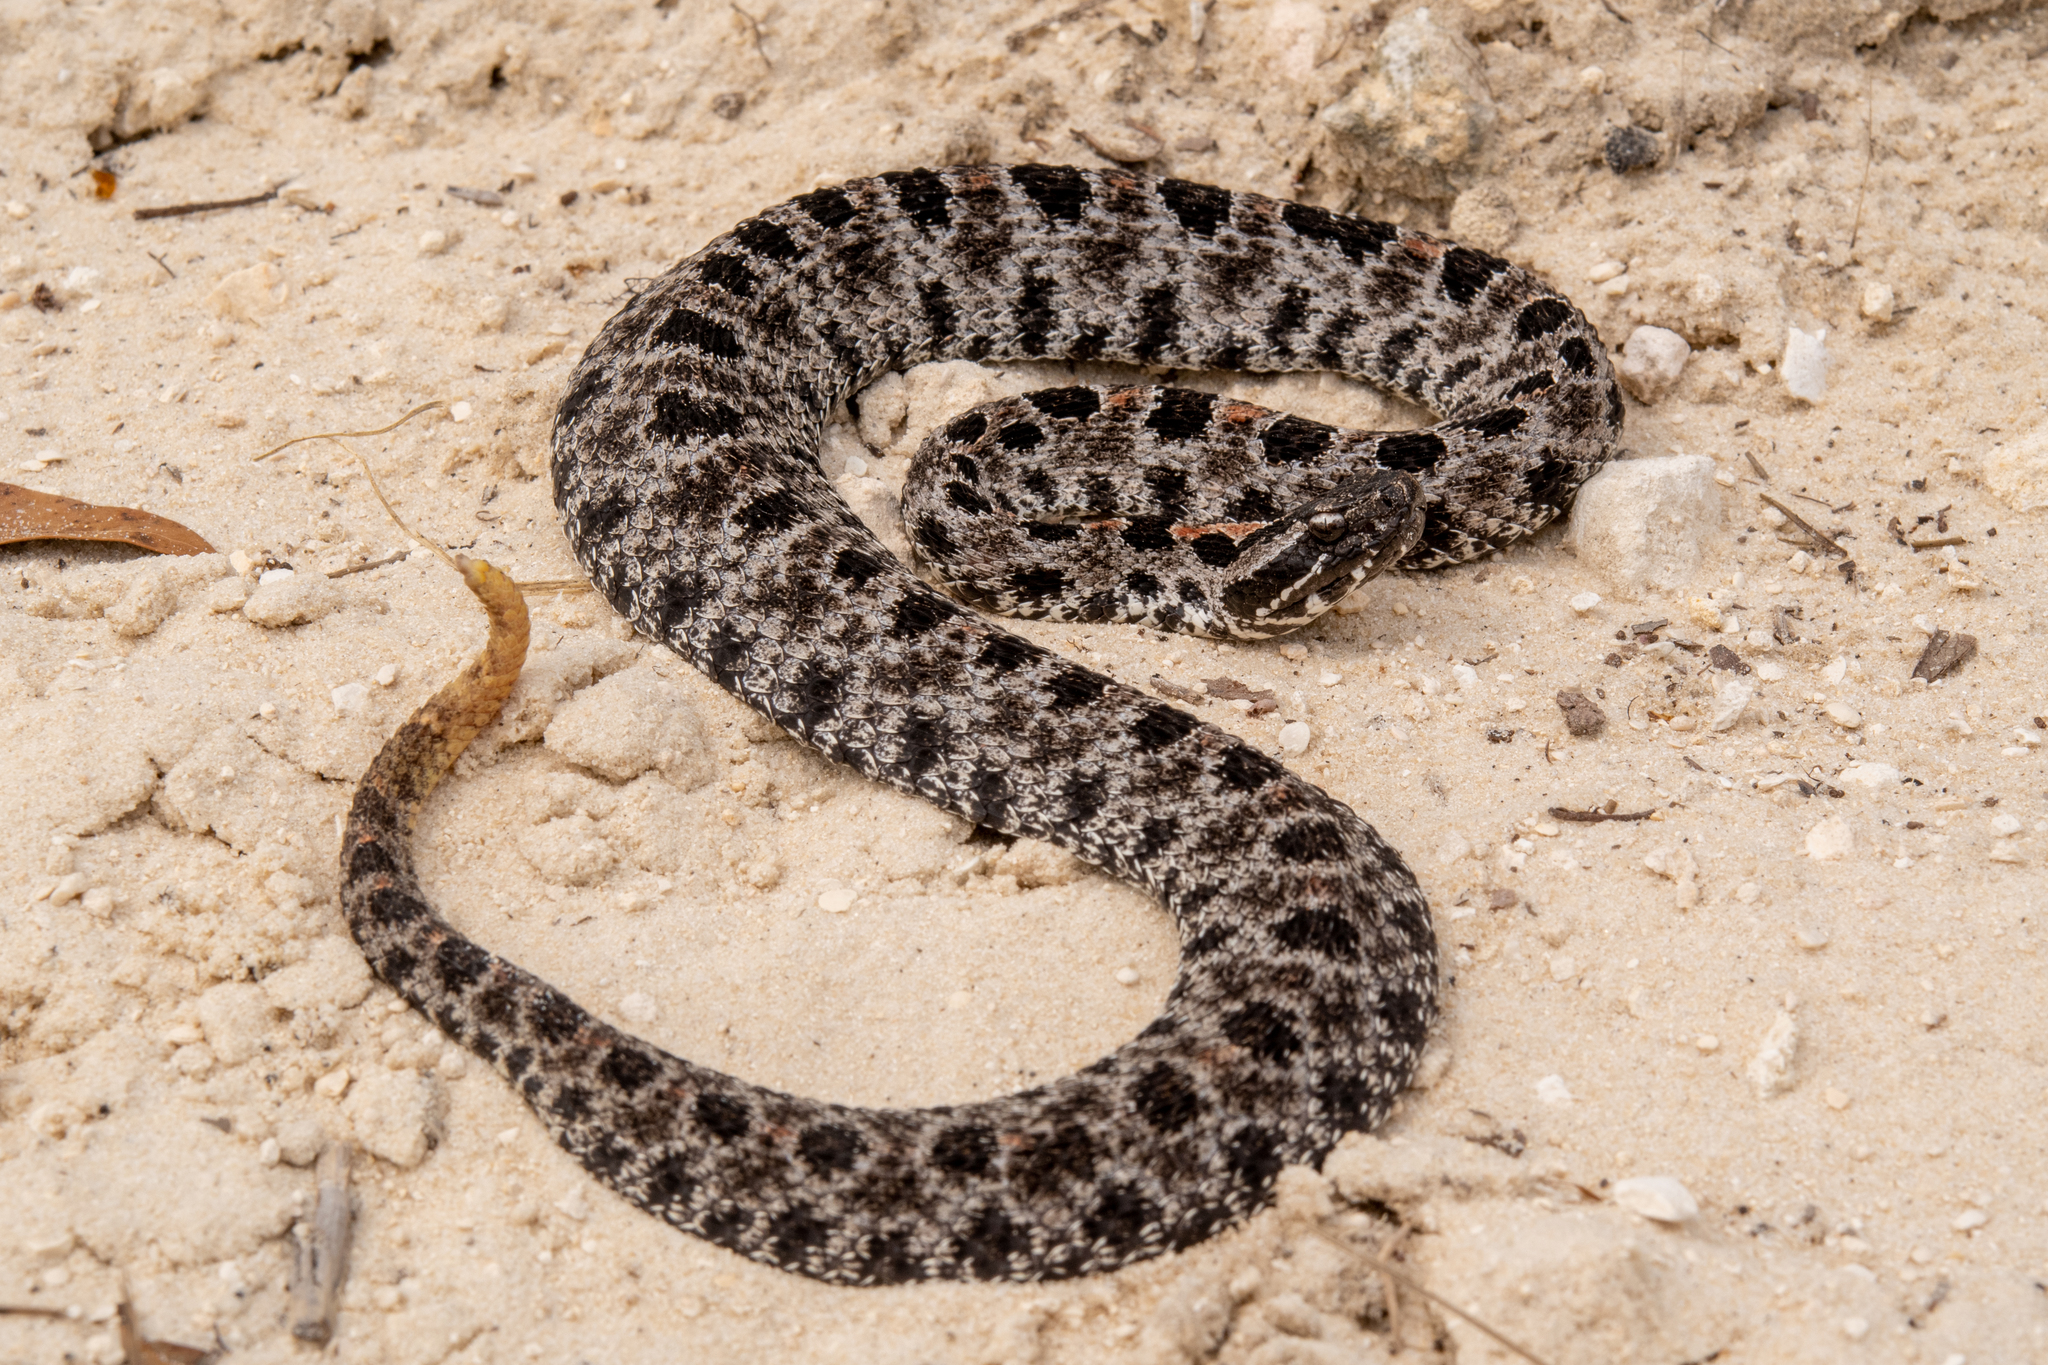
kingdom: Animalia
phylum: Chordata
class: Squamata
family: Viperidae
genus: Sistrurus
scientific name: Sistrurus miliarius
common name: Pygmy rattlesnake
